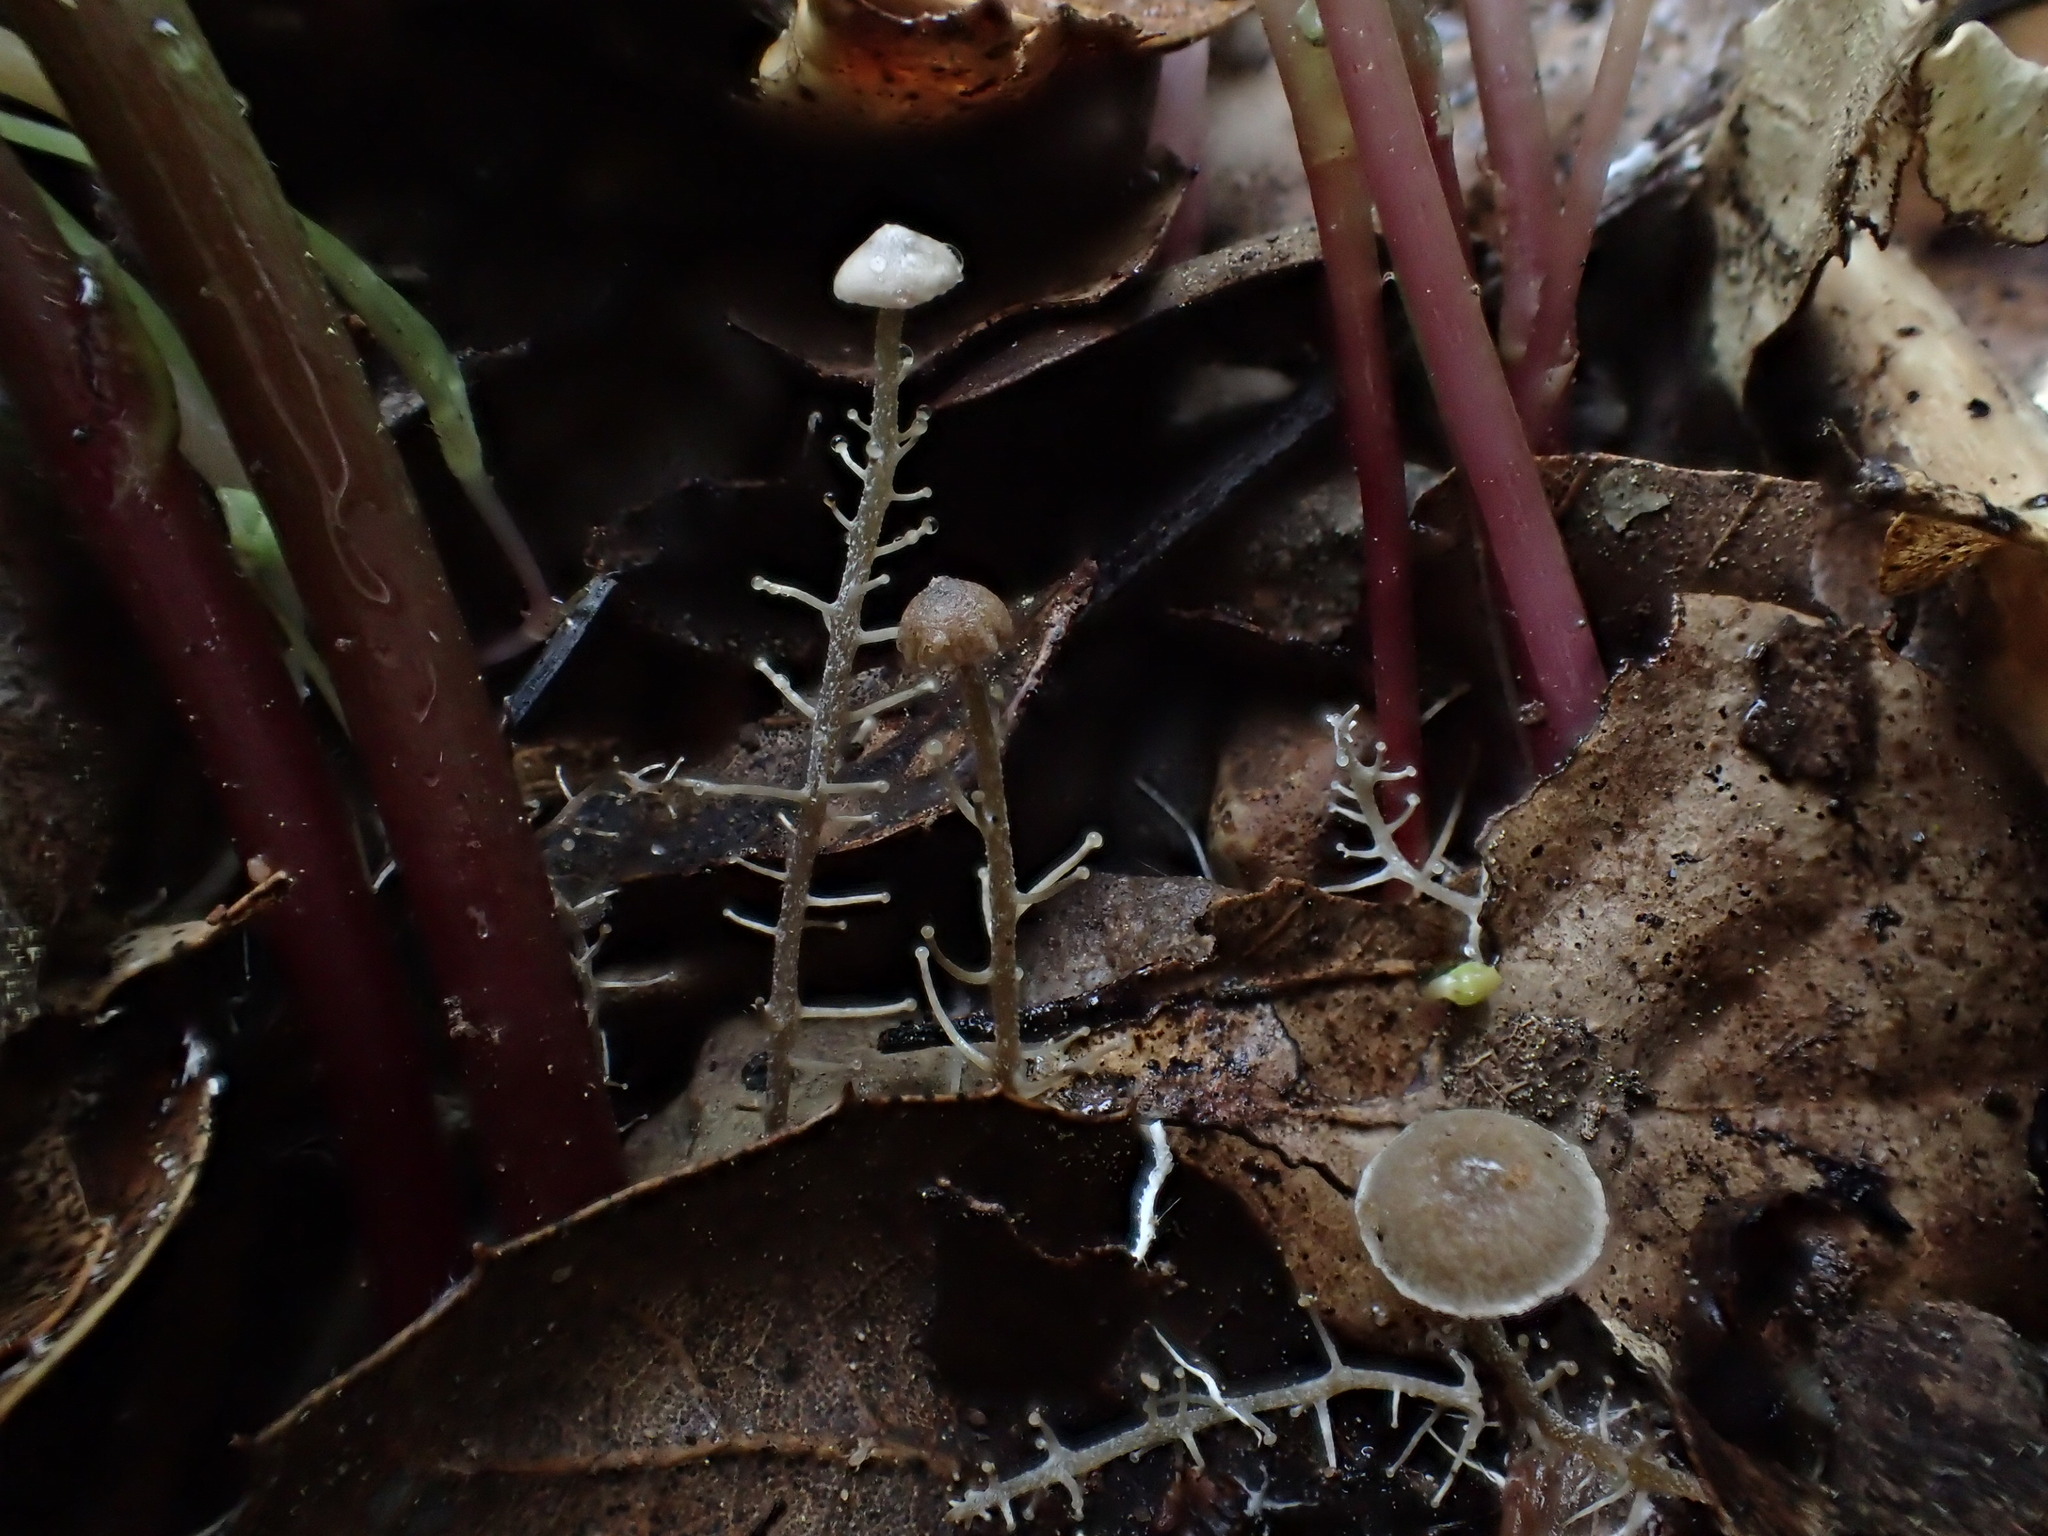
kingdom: Fungi
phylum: Basidiomycota
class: Agaricomycetes
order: Agaricales
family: Tricholomataceae
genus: Dendrocollybia
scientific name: Dendrocollybia racemosa
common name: Branched shanklet
